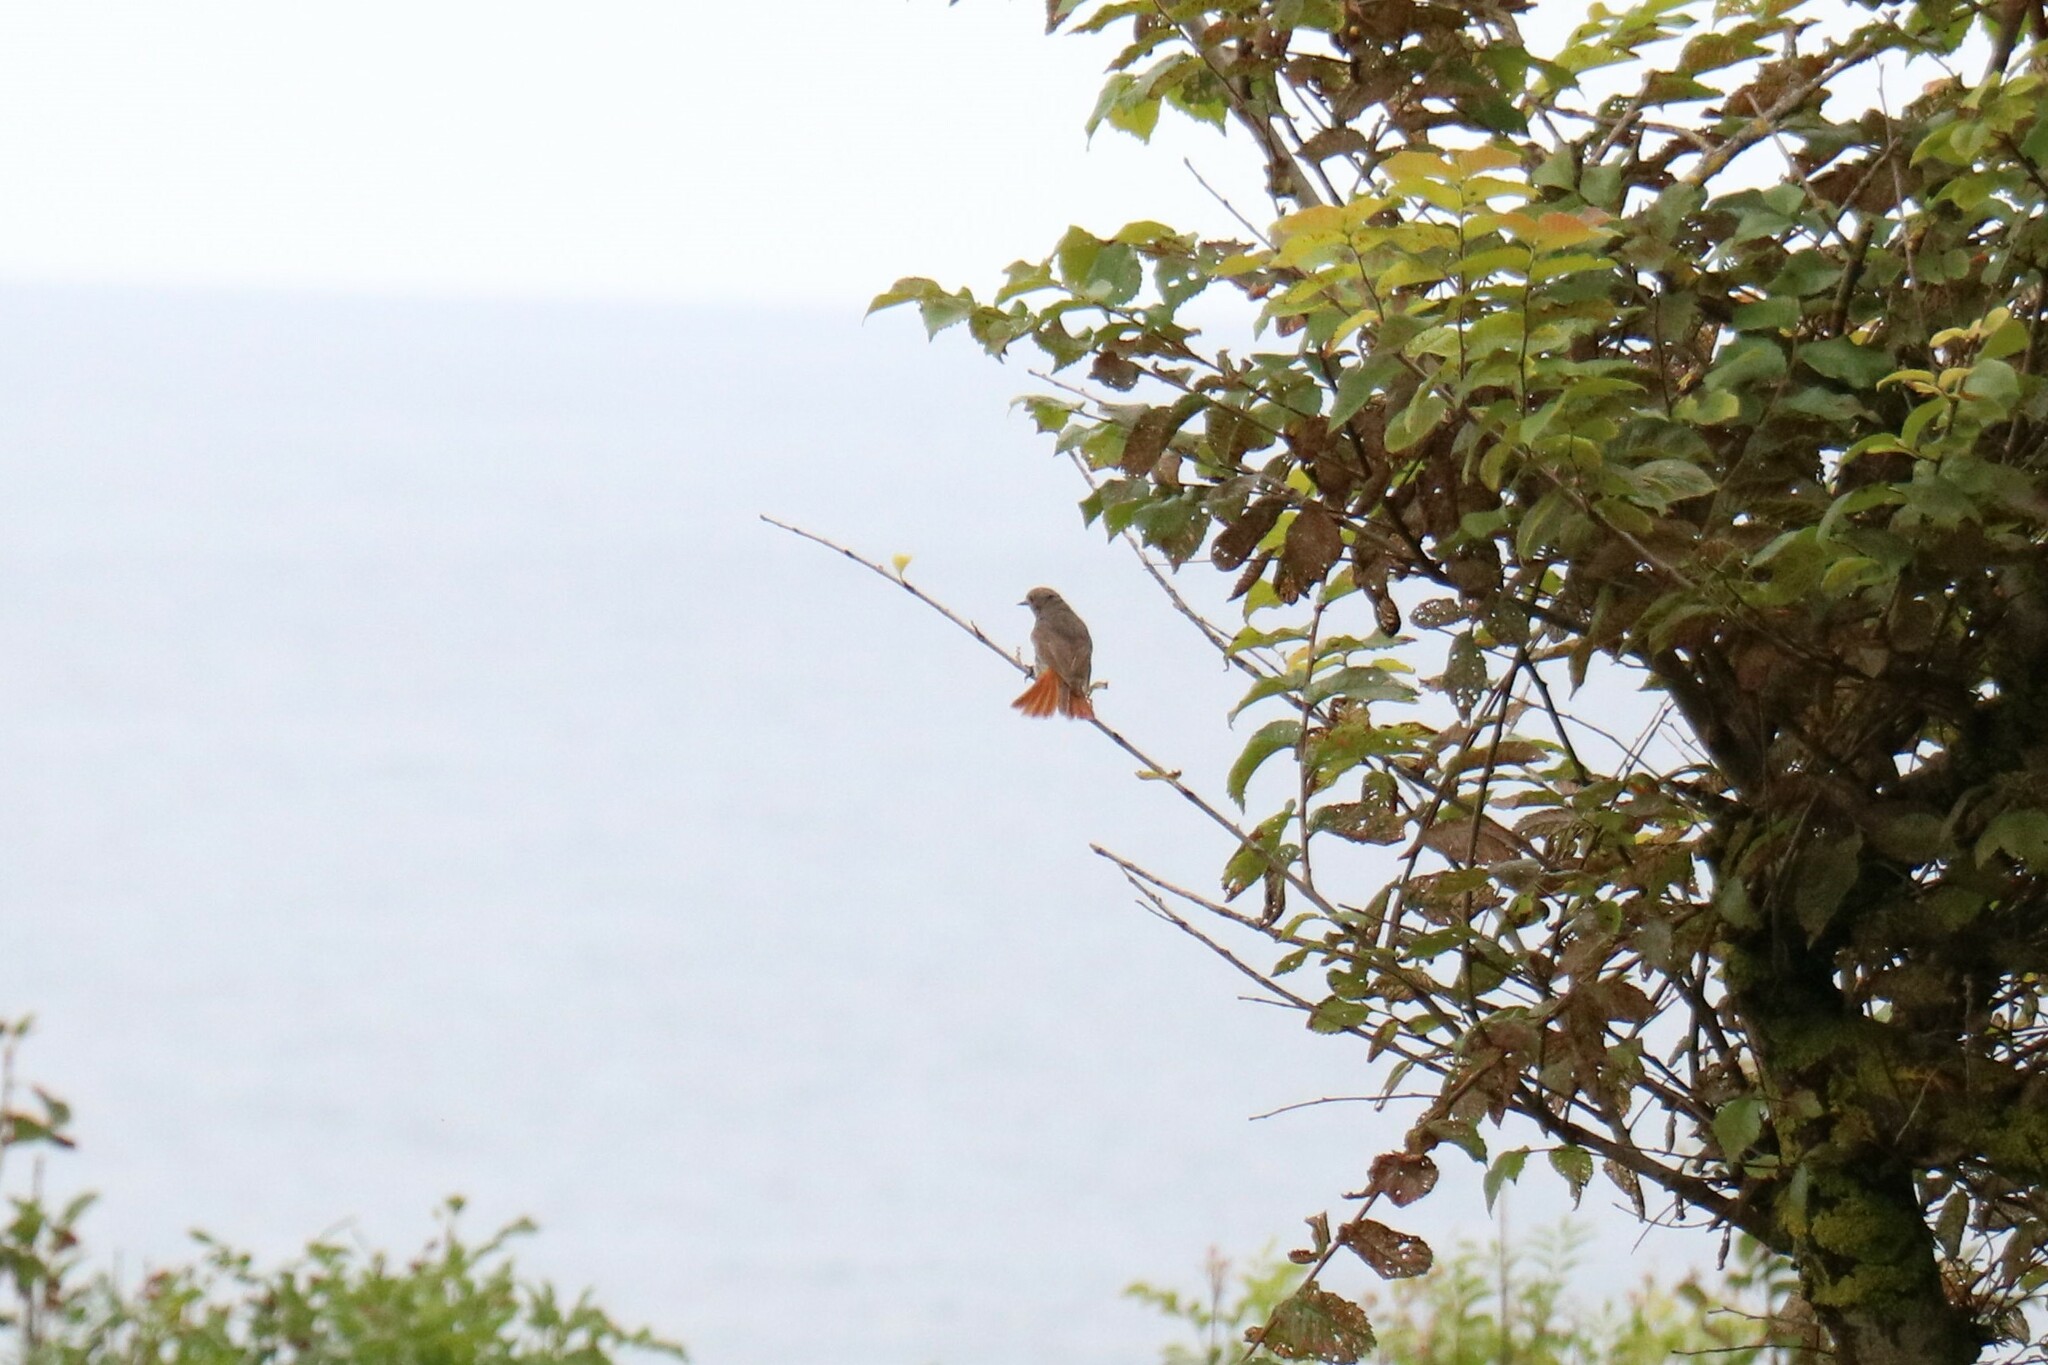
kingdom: Animalia
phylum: Chordata
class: Aves
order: Passeriformes
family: Muscicapidae
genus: Phoenicurus
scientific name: Phoenicurus ochruros
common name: Black redstart
